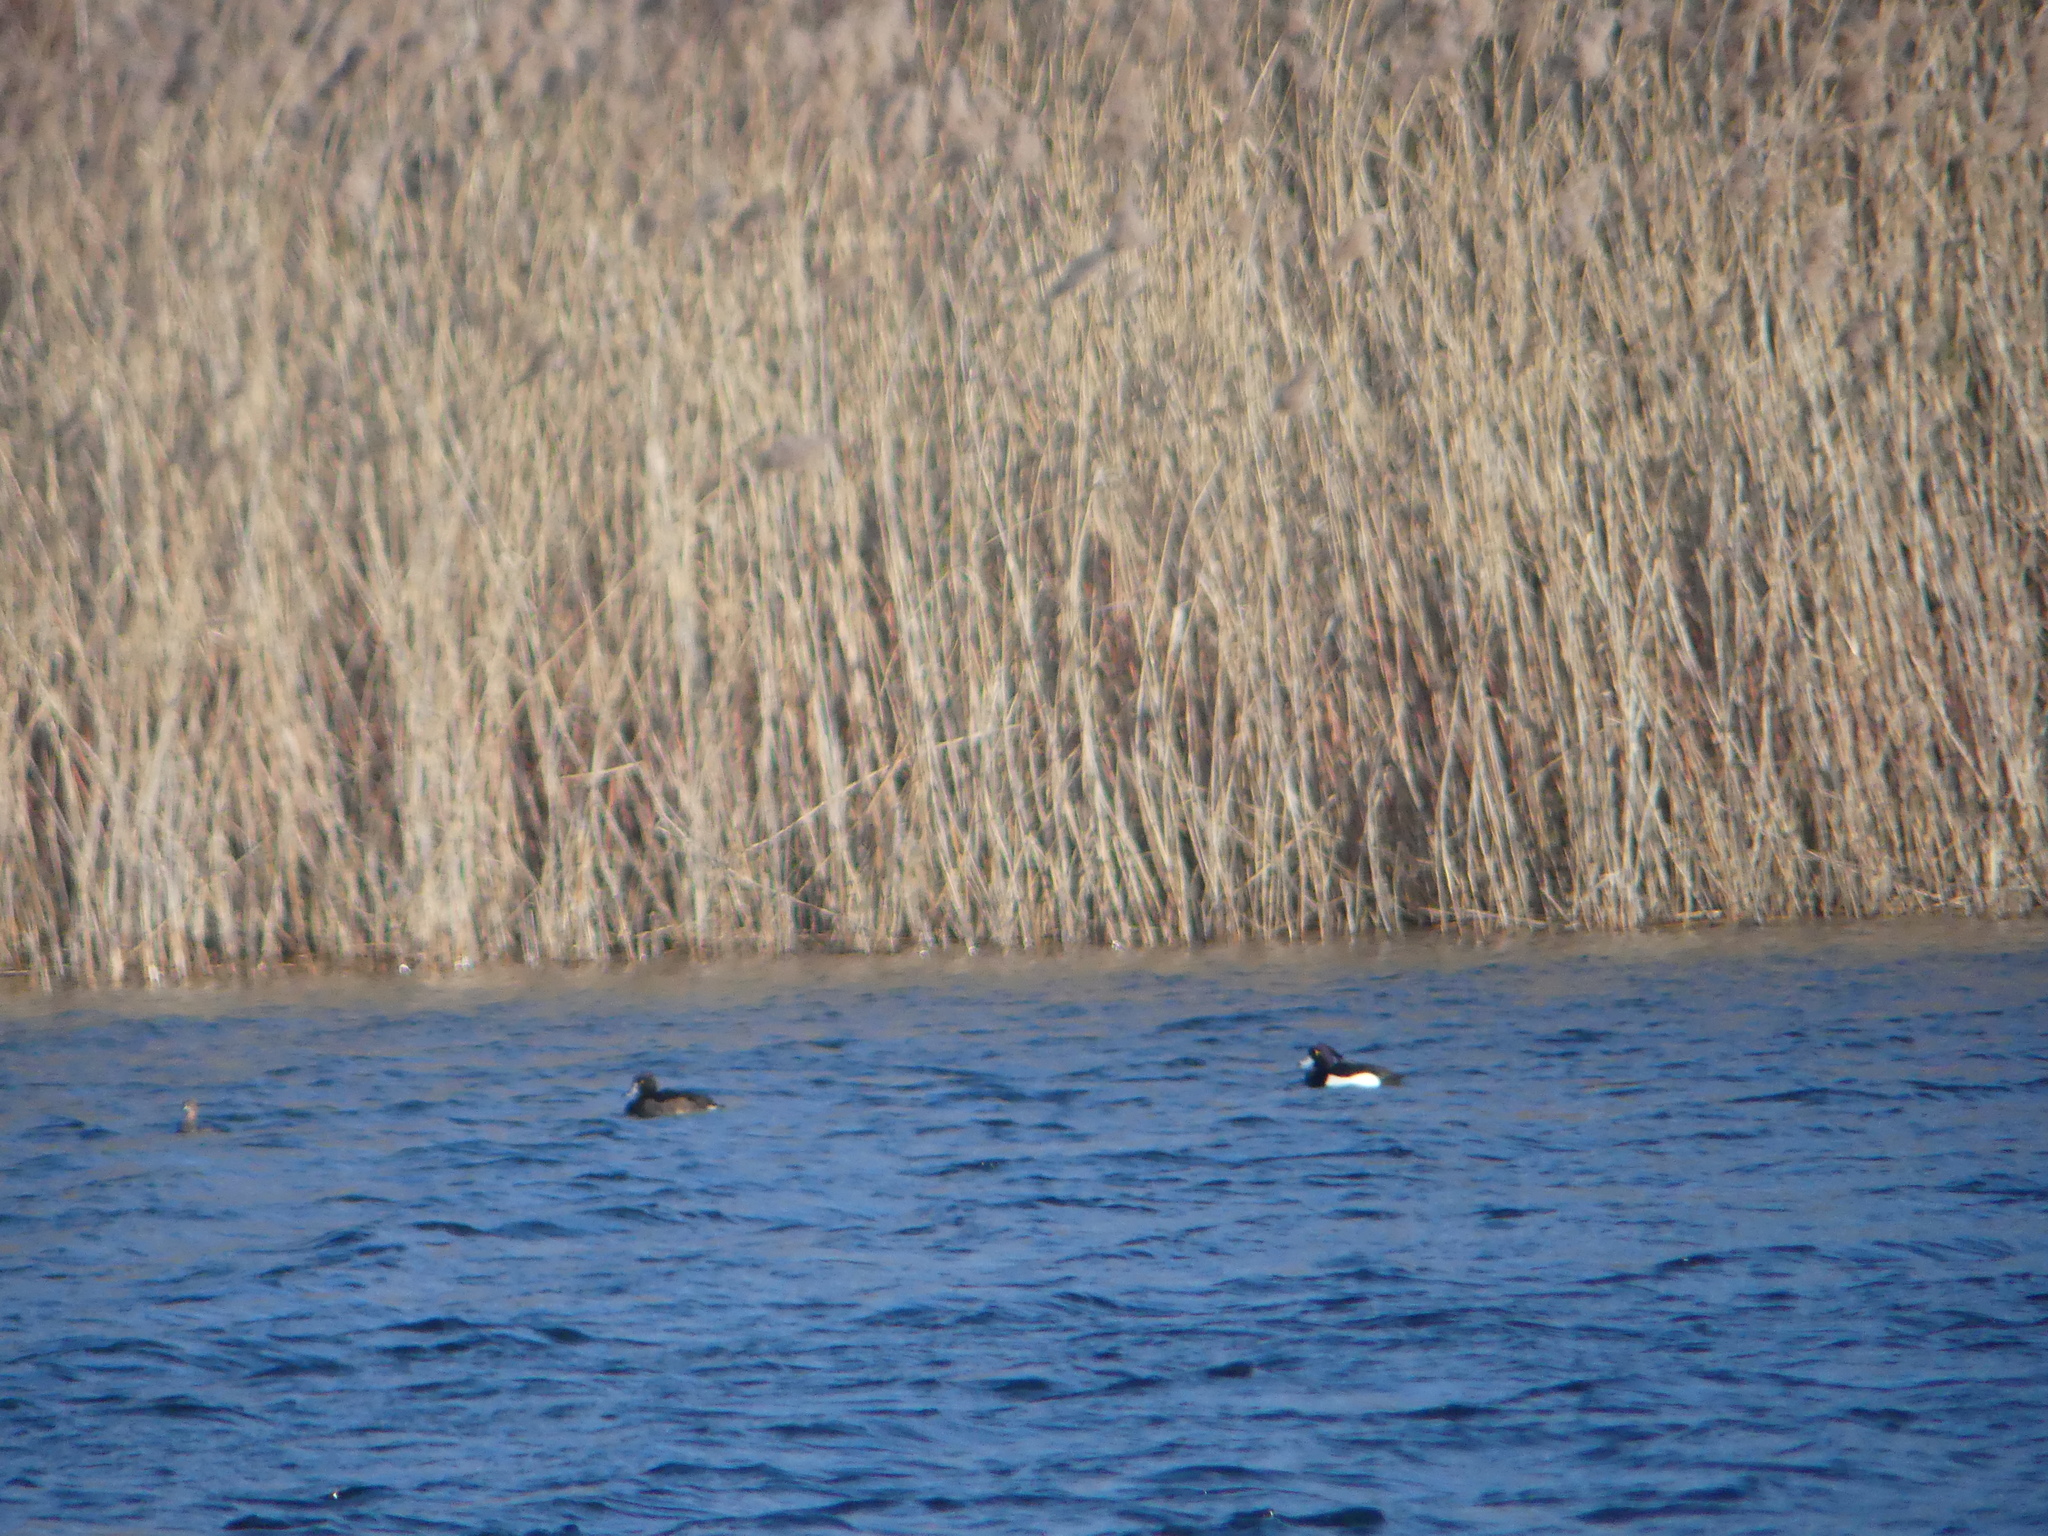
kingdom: Animalia
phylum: Chordata
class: Aves
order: Anseriformes
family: Anatidae
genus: Aythya
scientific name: Aythya fuligula
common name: Tufted duck
